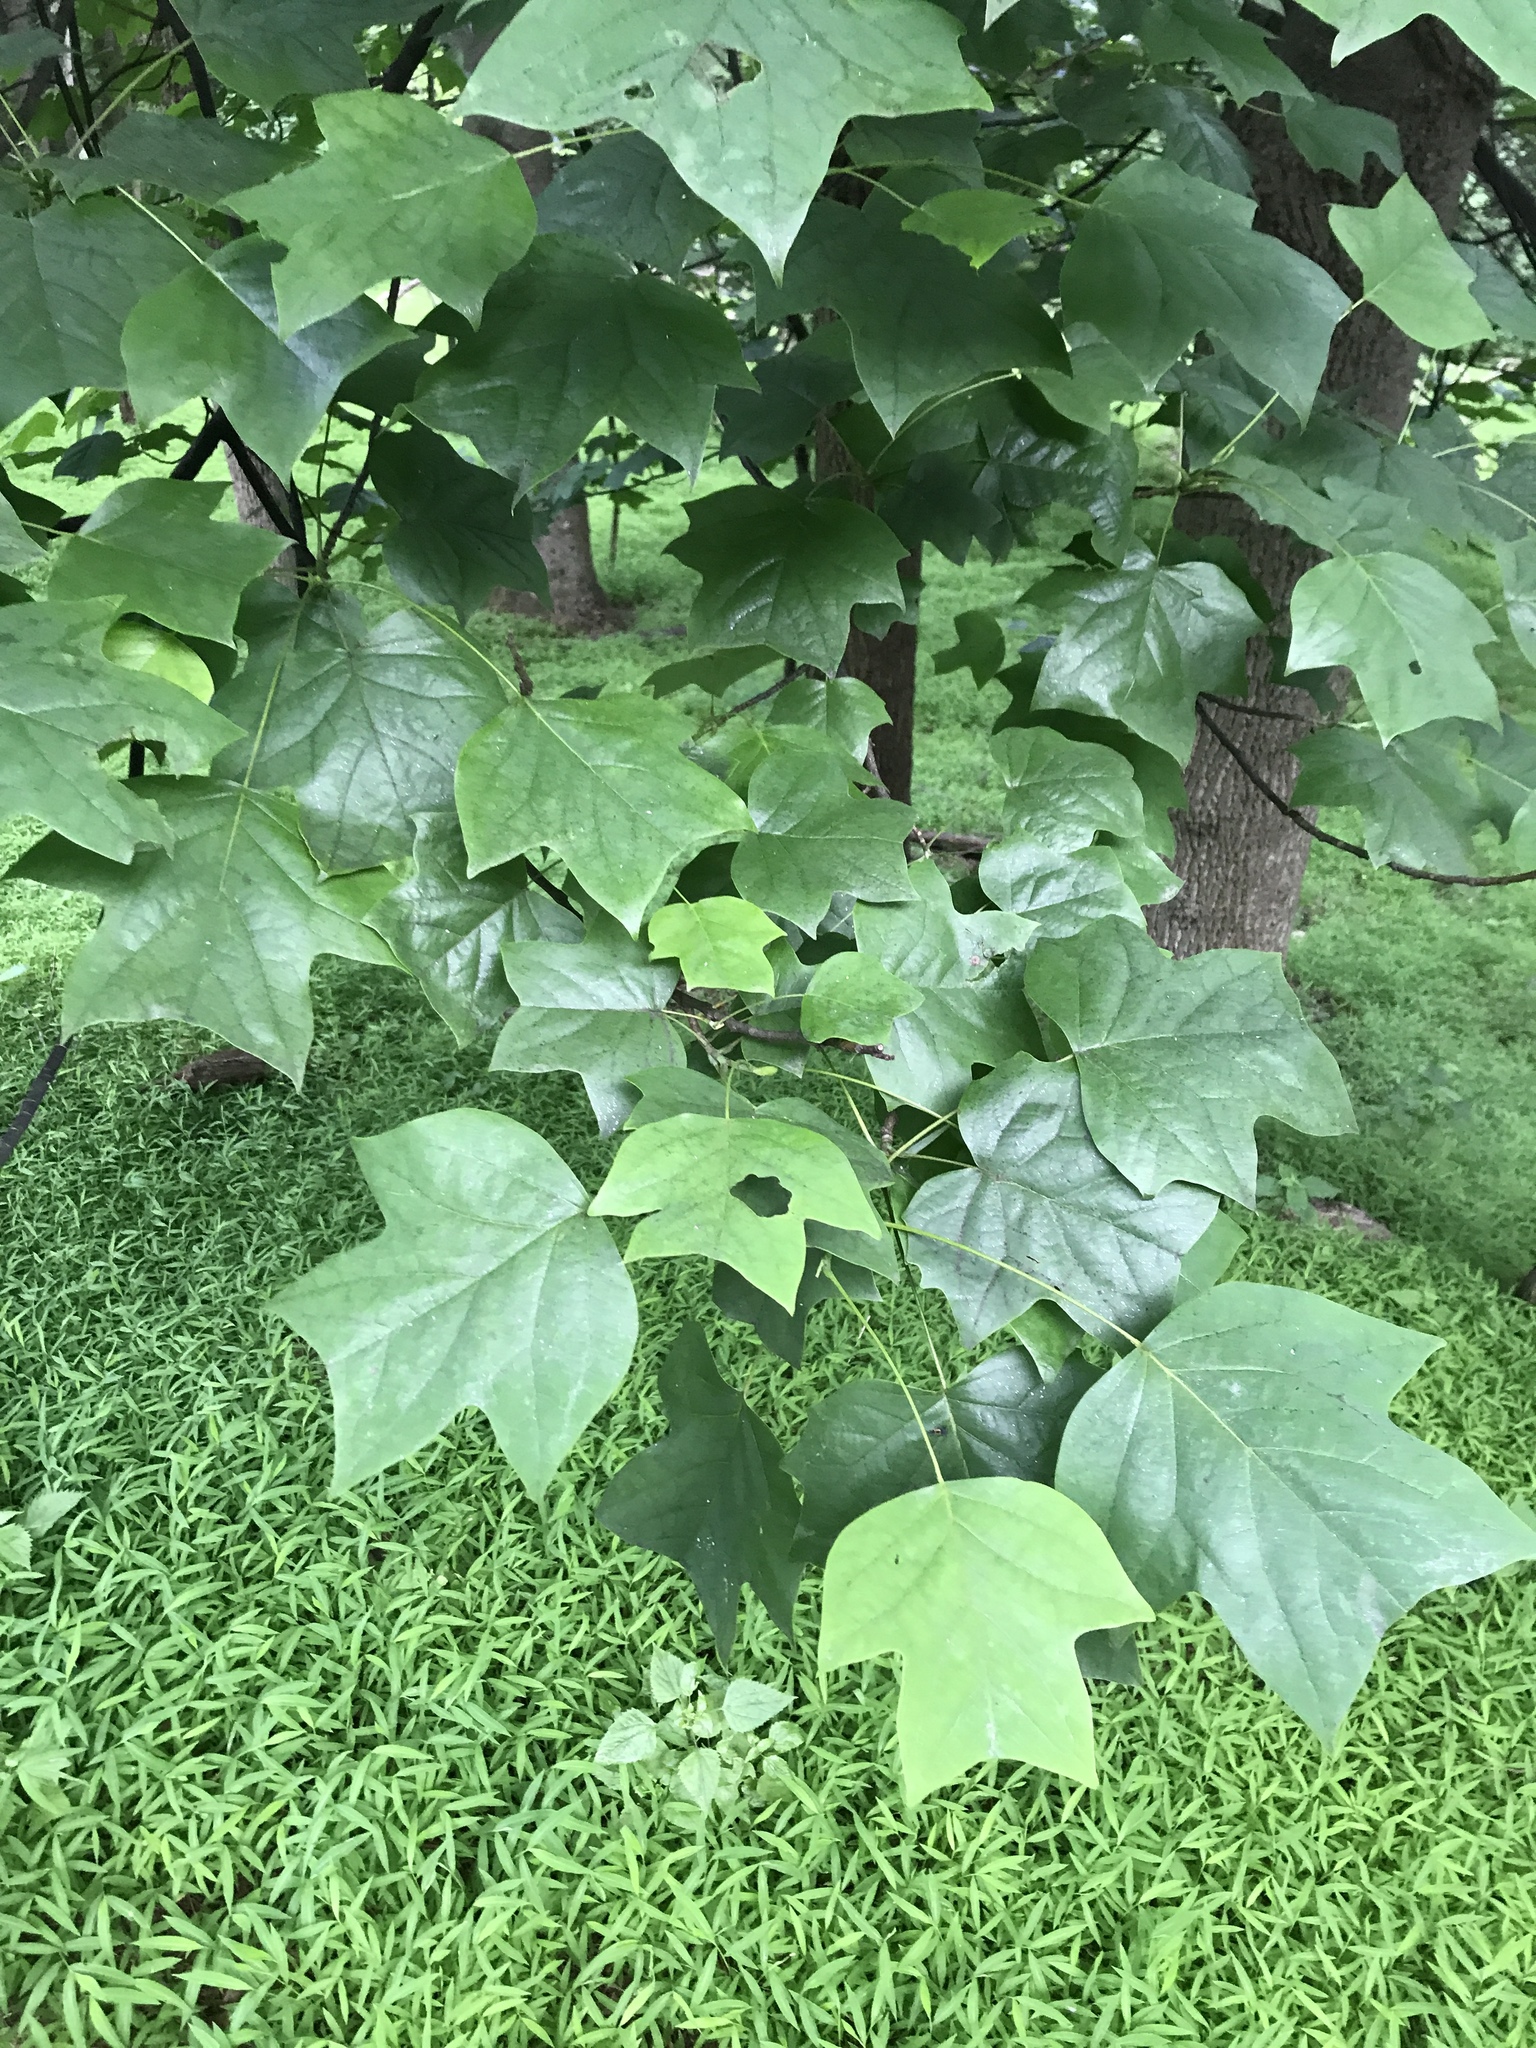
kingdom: Plantae
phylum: Tracheophyta
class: Magnoliopsida
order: Magnoliales
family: Magnoliaceae
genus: Liriodendron
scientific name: Liriodendron tulipifera
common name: Tulip tree
